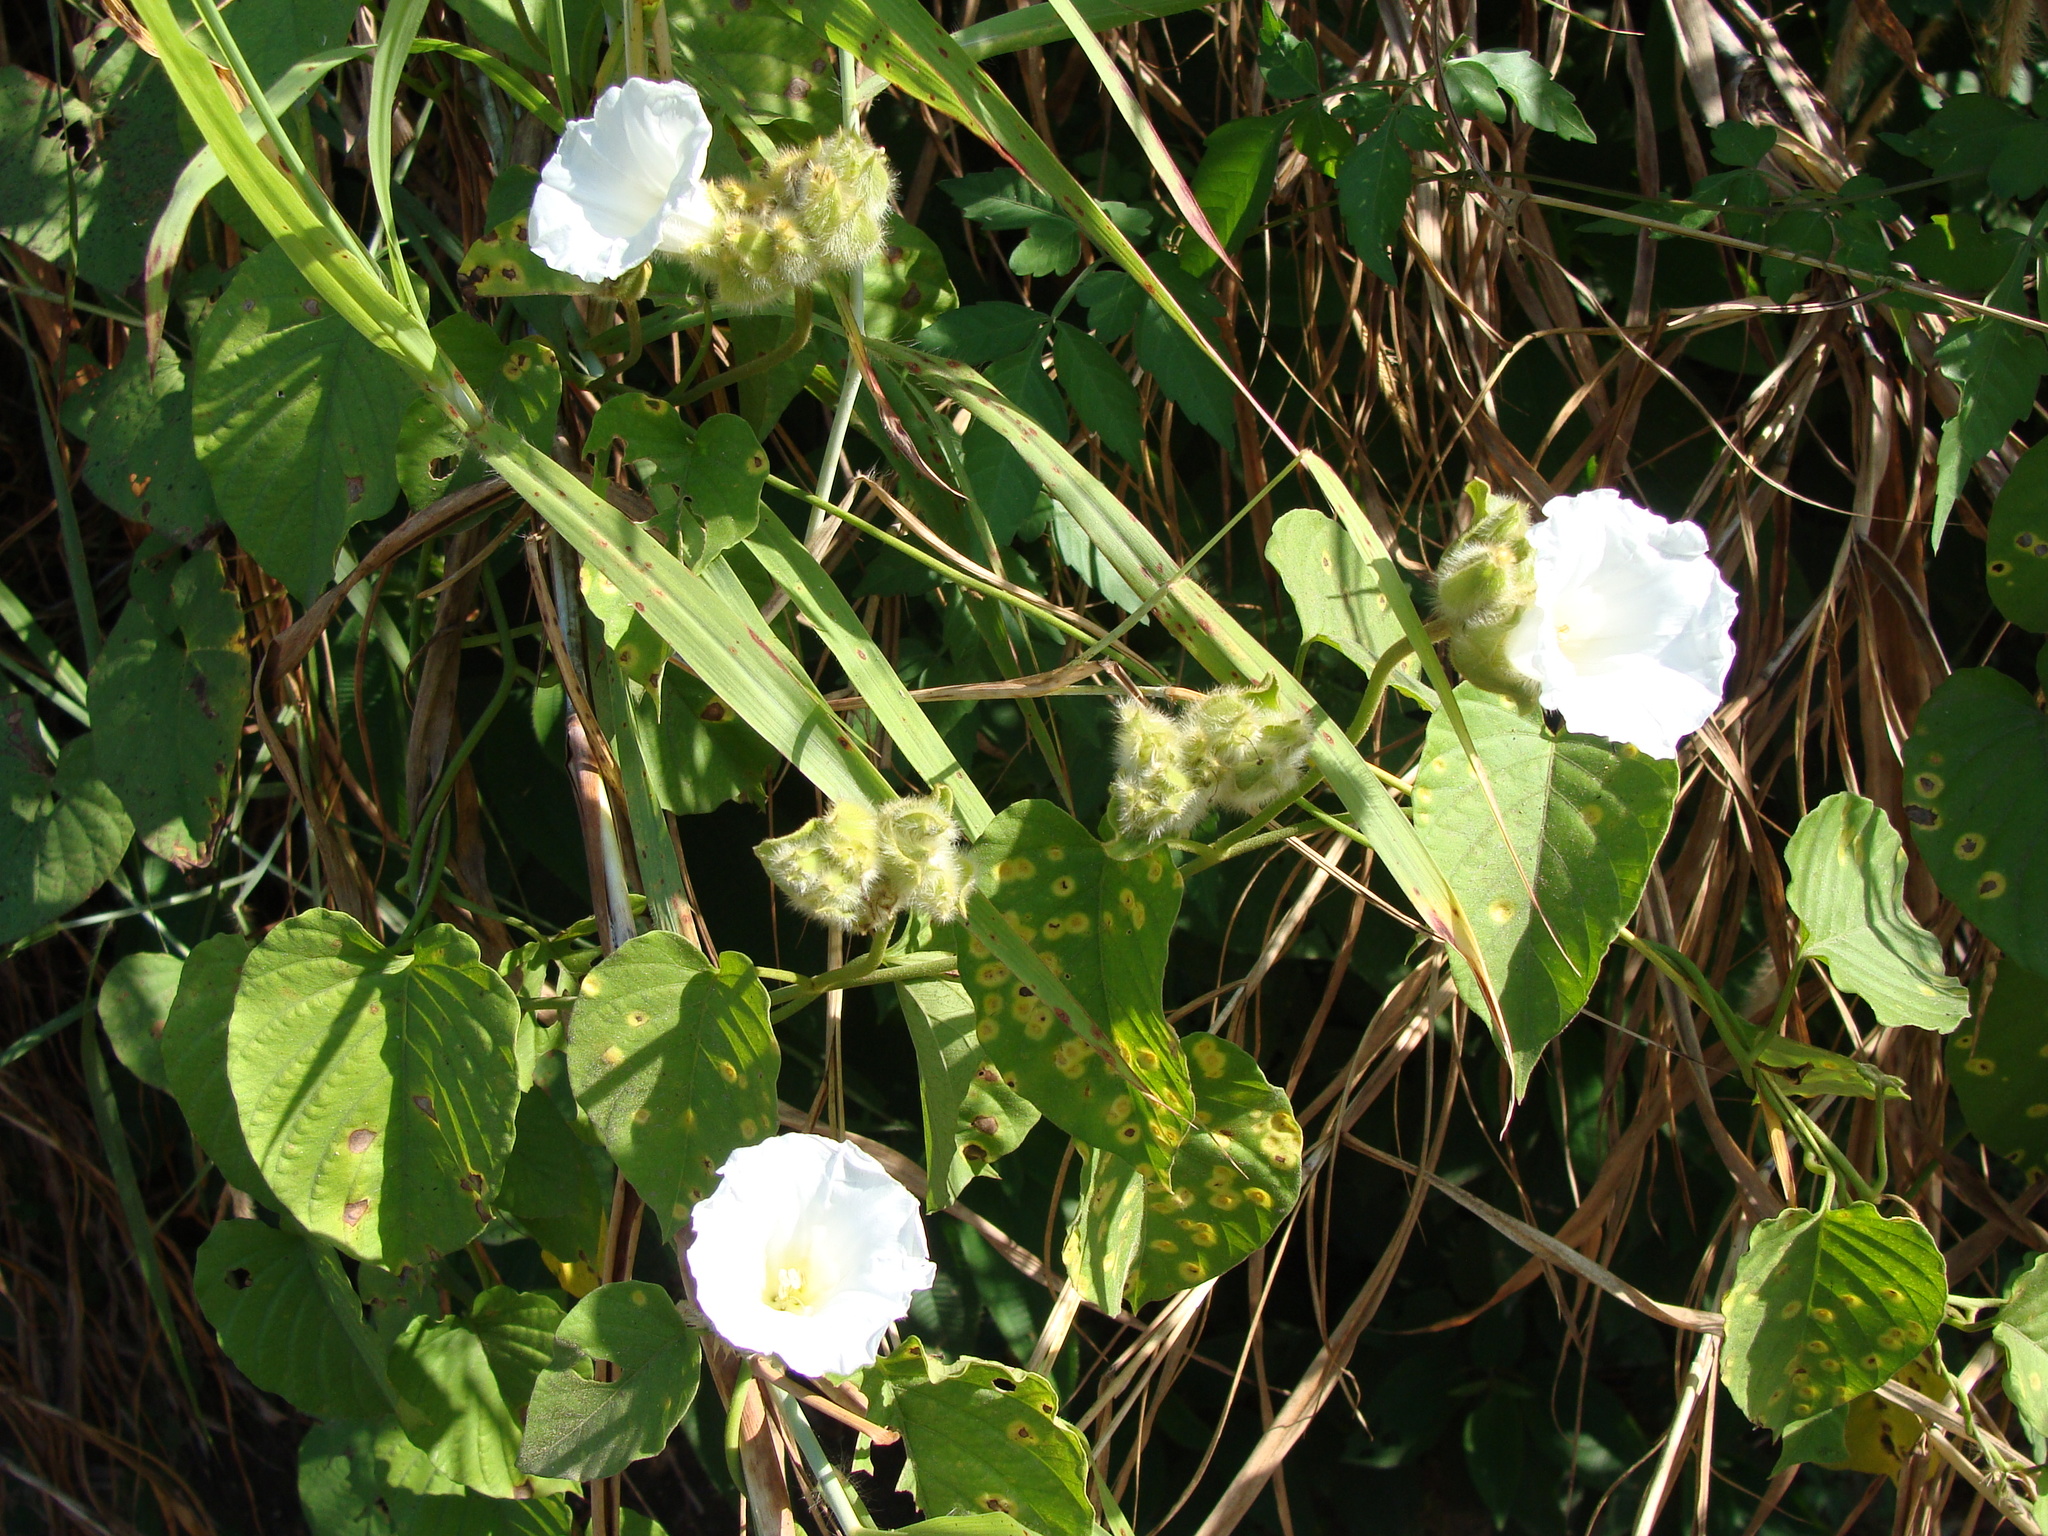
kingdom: Plantae
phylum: Tracheophyta
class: Magnoliopsida
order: Solanales
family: Convolvulaceae
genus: Odonellia
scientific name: Odonellia hirtiflora
